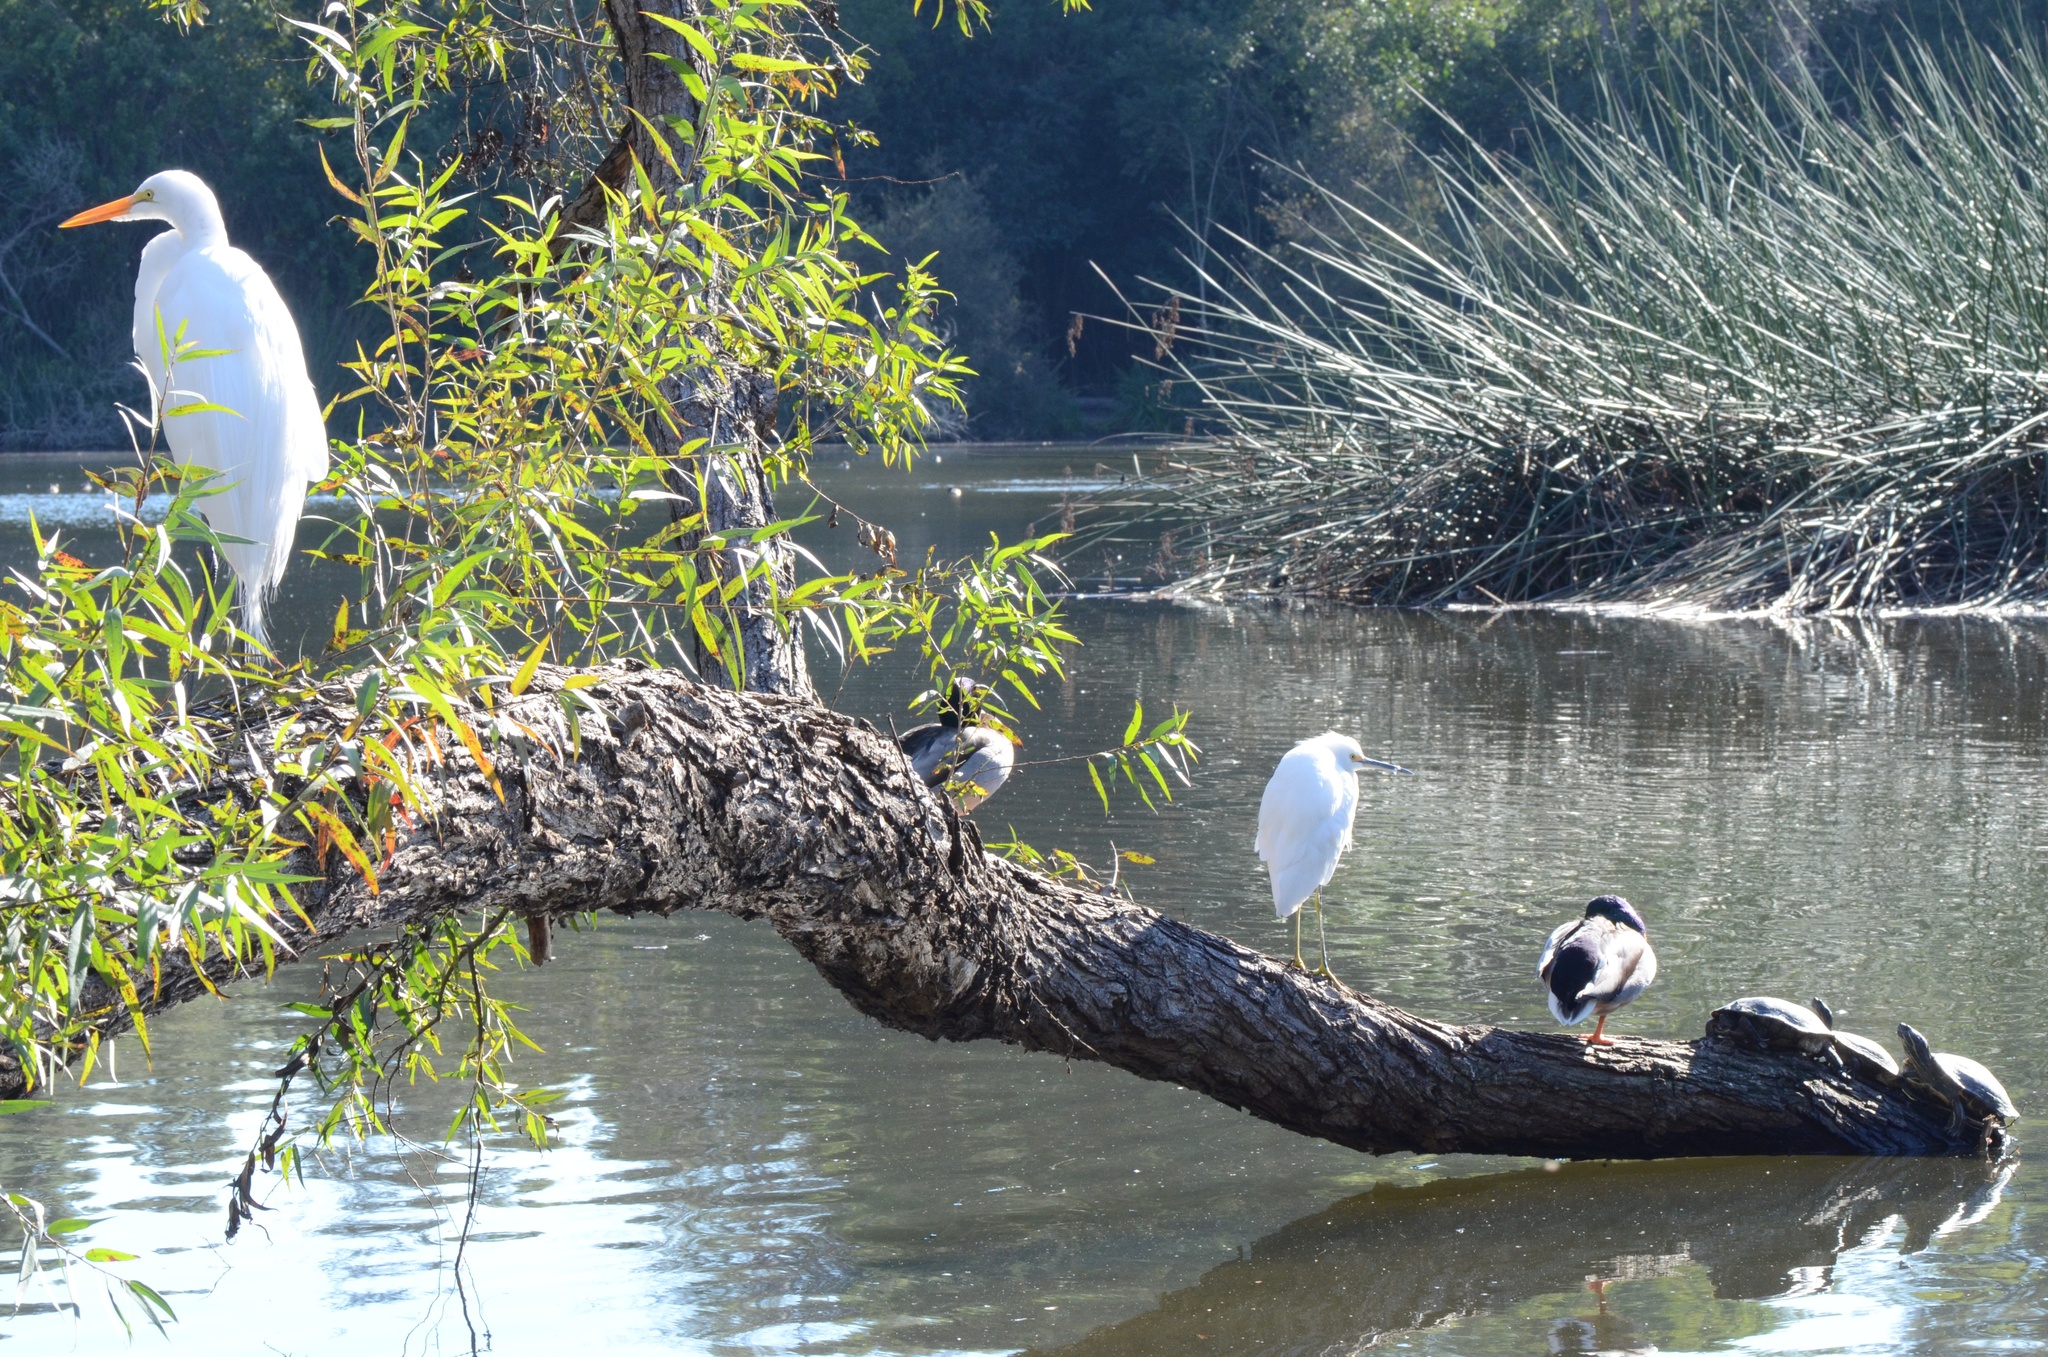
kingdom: Animalia
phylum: Chordata
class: Aves
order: Pelecaniformes
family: Ardeidae
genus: Egretta
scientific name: Egretta thula
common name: Snowy egret
